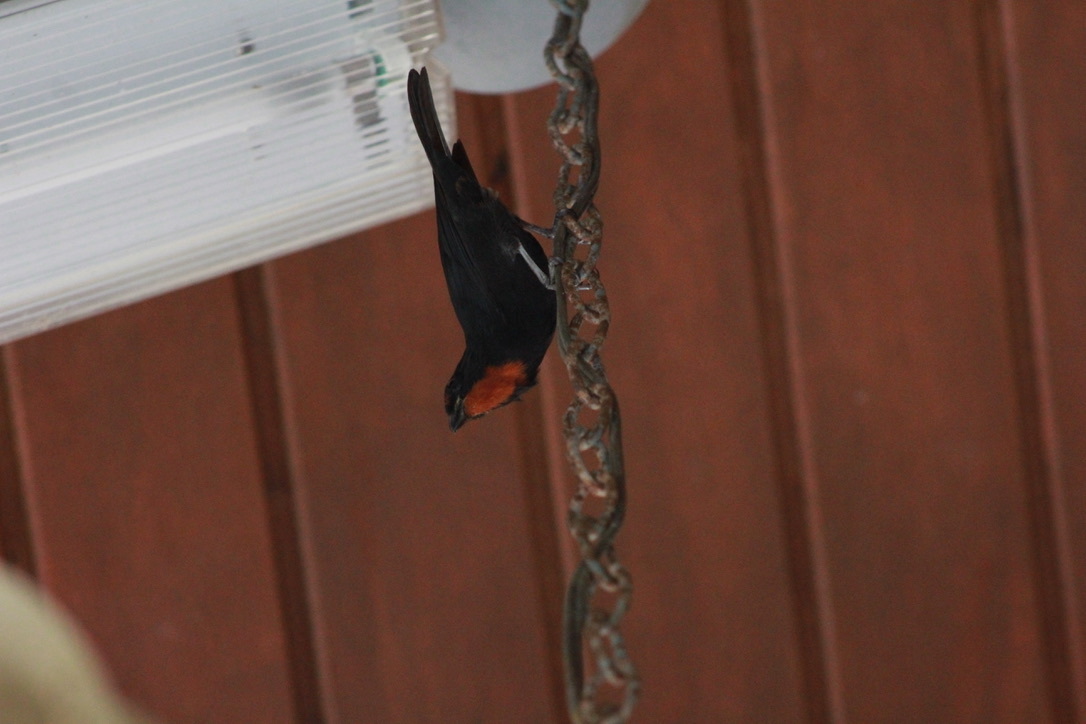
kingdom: Animalia
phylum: Chordata
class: Aves
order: Passeriformes
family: Thraupidae
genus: Loxigilla
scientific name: Loxigilla noctis
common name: Lesser antillean bullfinch
